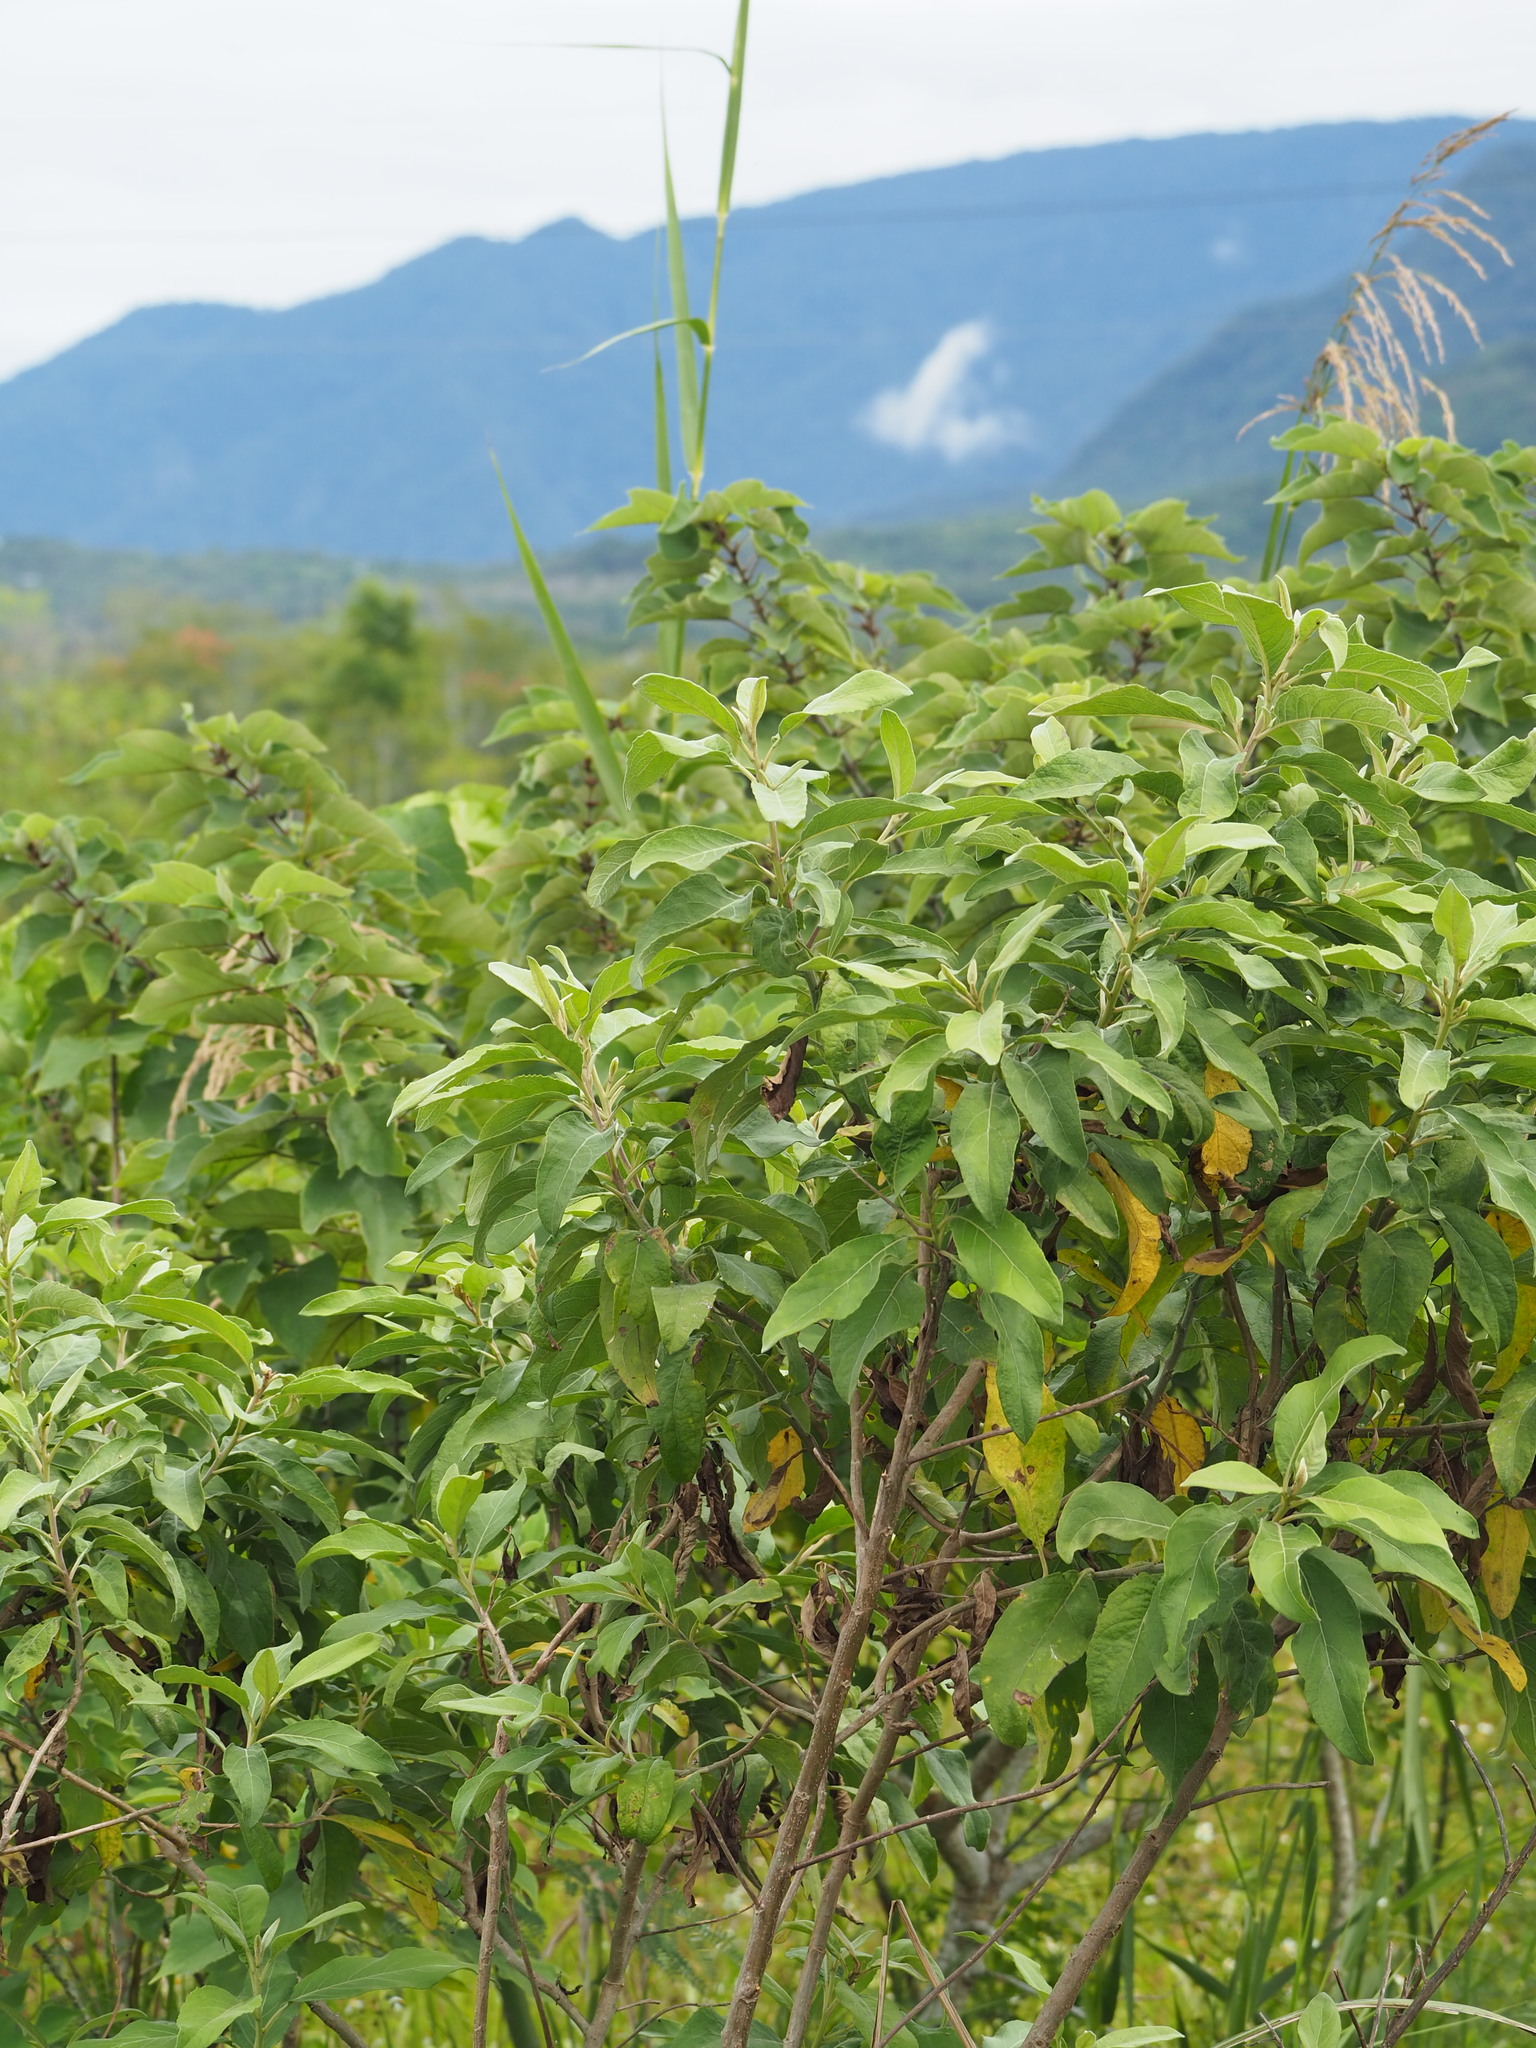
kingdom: Plantae
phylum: Tracheophyta
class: Magnoliopsida
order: Asterales
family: Asteraceae
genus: Pluchea
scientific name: Pluchea carolinensis
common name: Marsh fleabane
